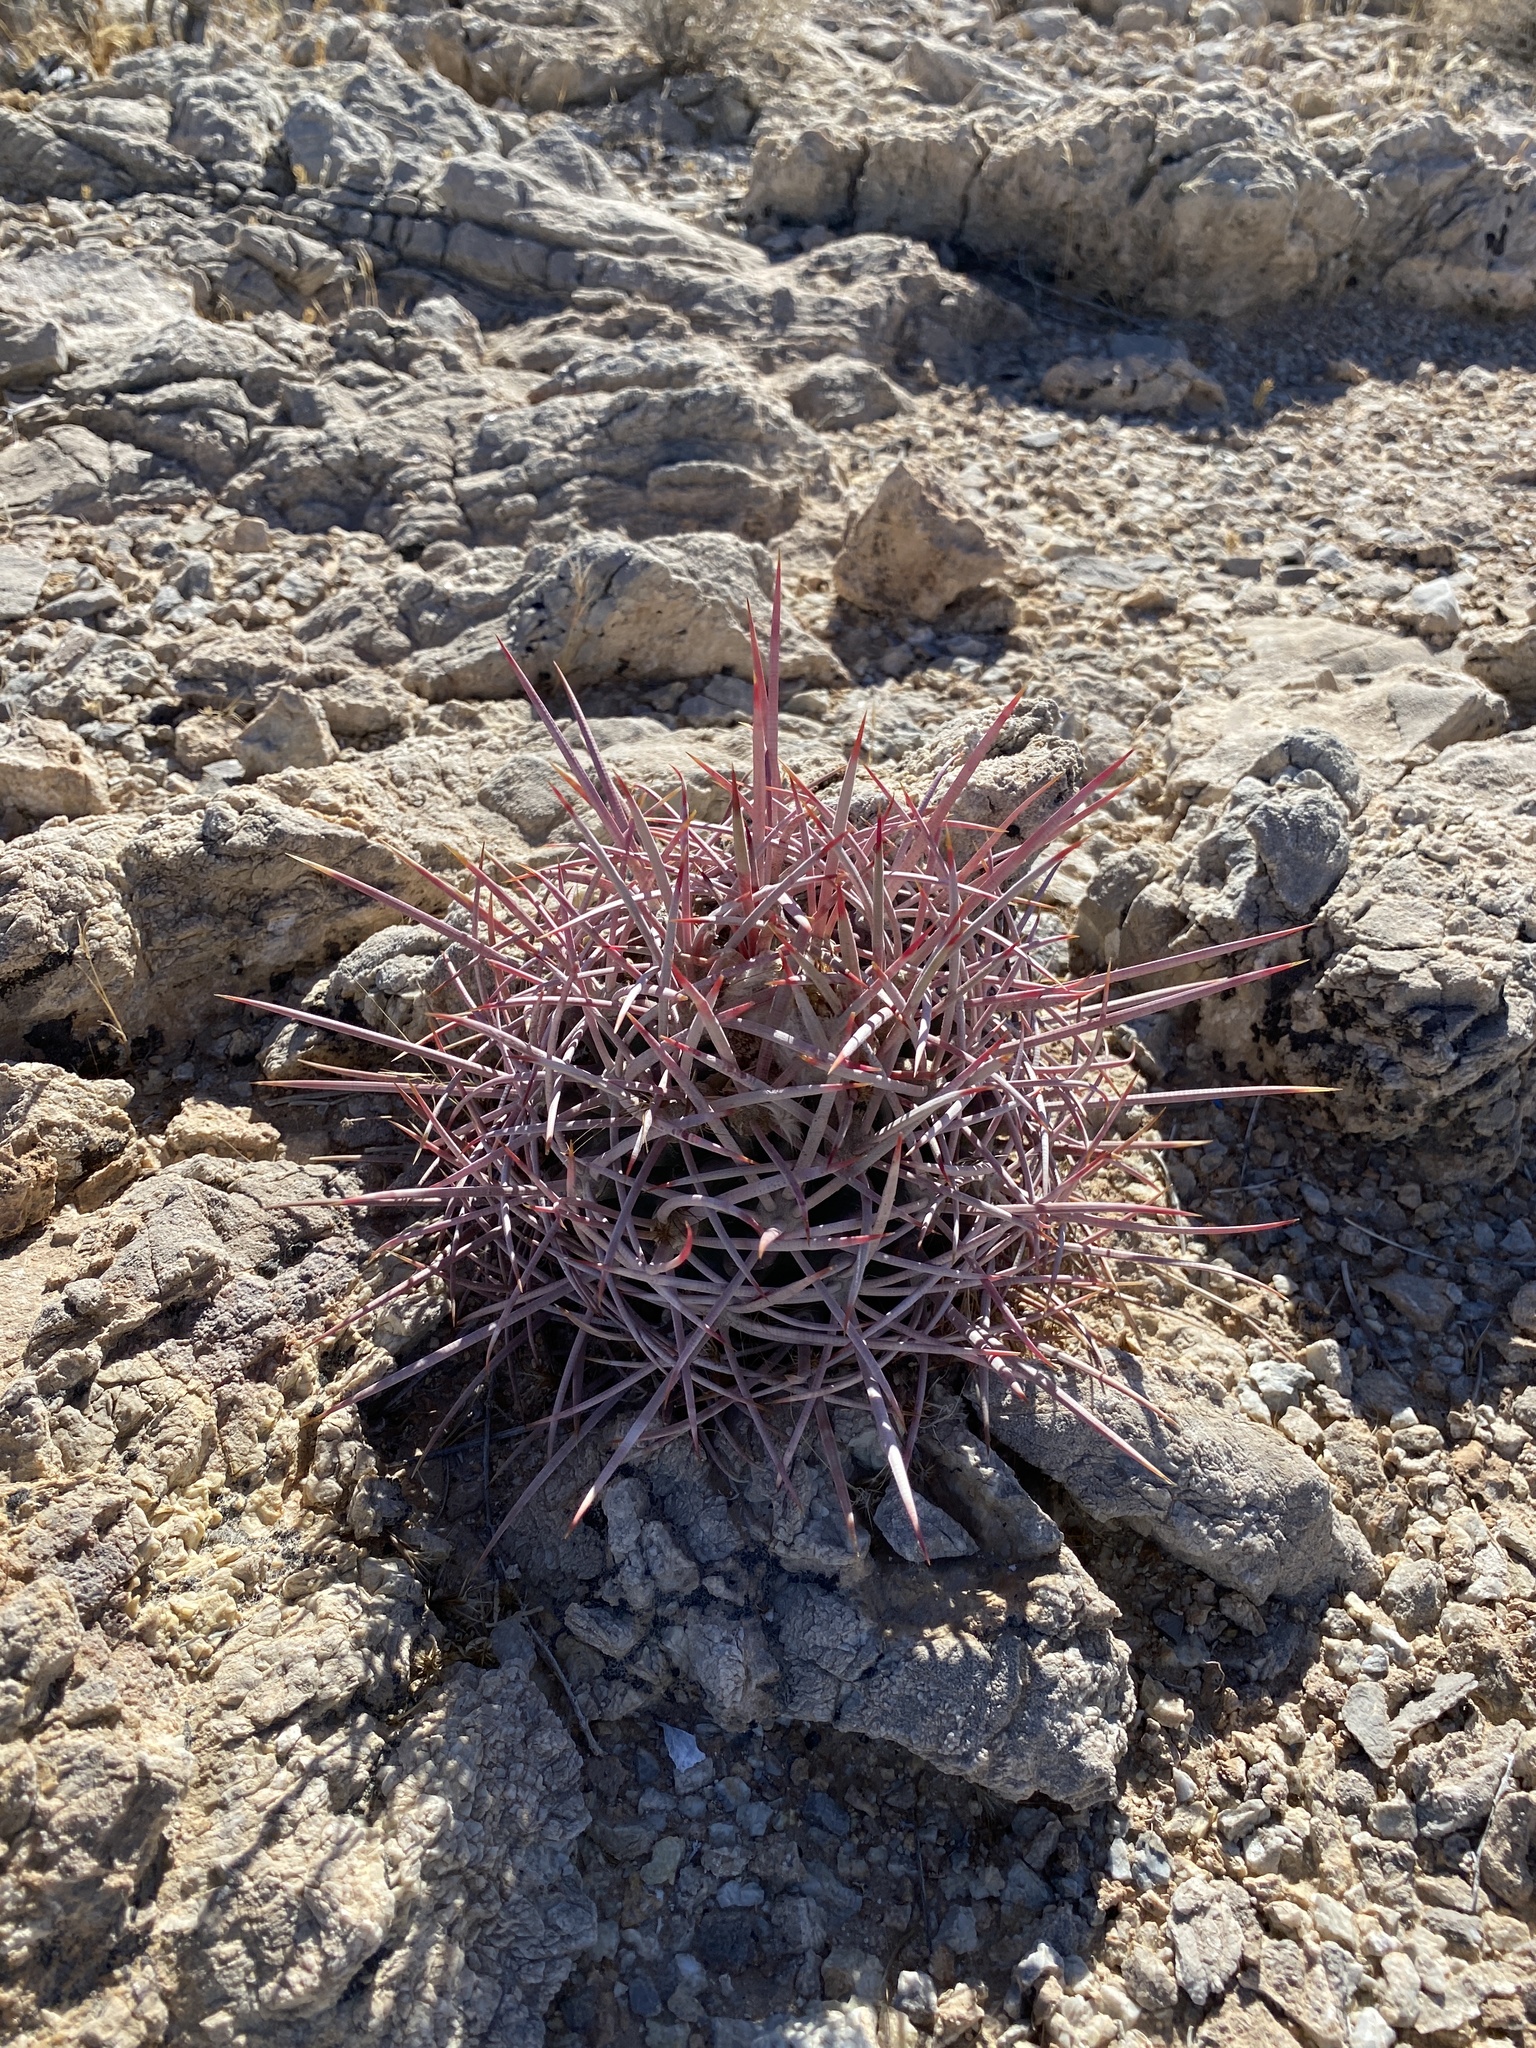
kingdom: Plantae
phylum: Tracheophyta
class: Magnoliopsida
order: Caryophyllales
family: Cactaceae
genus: Echinocactus
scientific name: Echinocactus polycephalus
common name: Cottontop cactus
